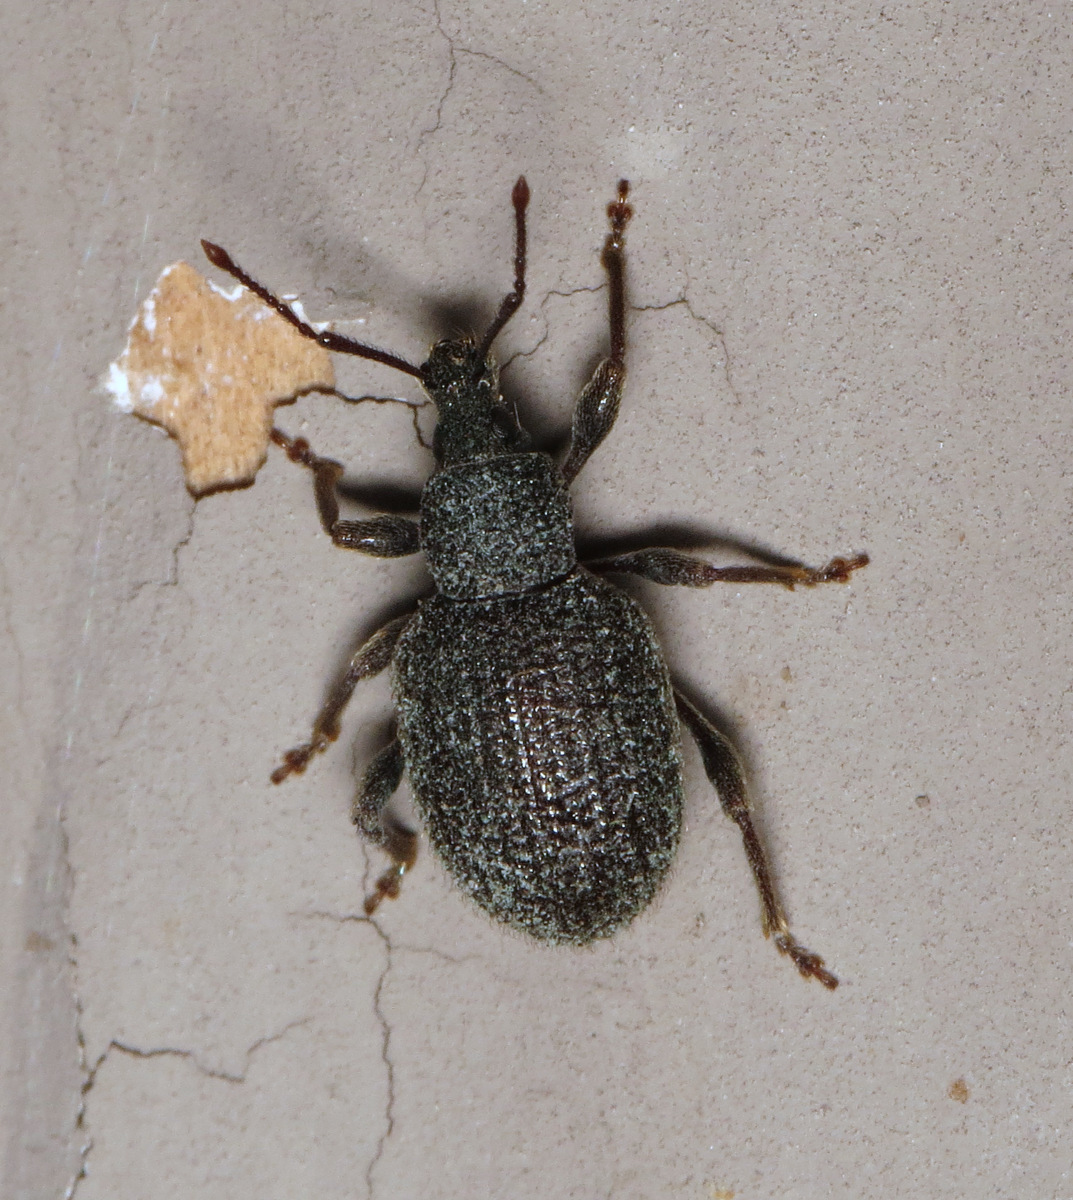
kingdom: Animalia
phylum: Arthropoda
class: Insecta
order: Coleoptera
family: Curculionidae
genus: Otiorhynchus
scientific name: Otiorhynchus rugosostriatus
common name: Weevil
